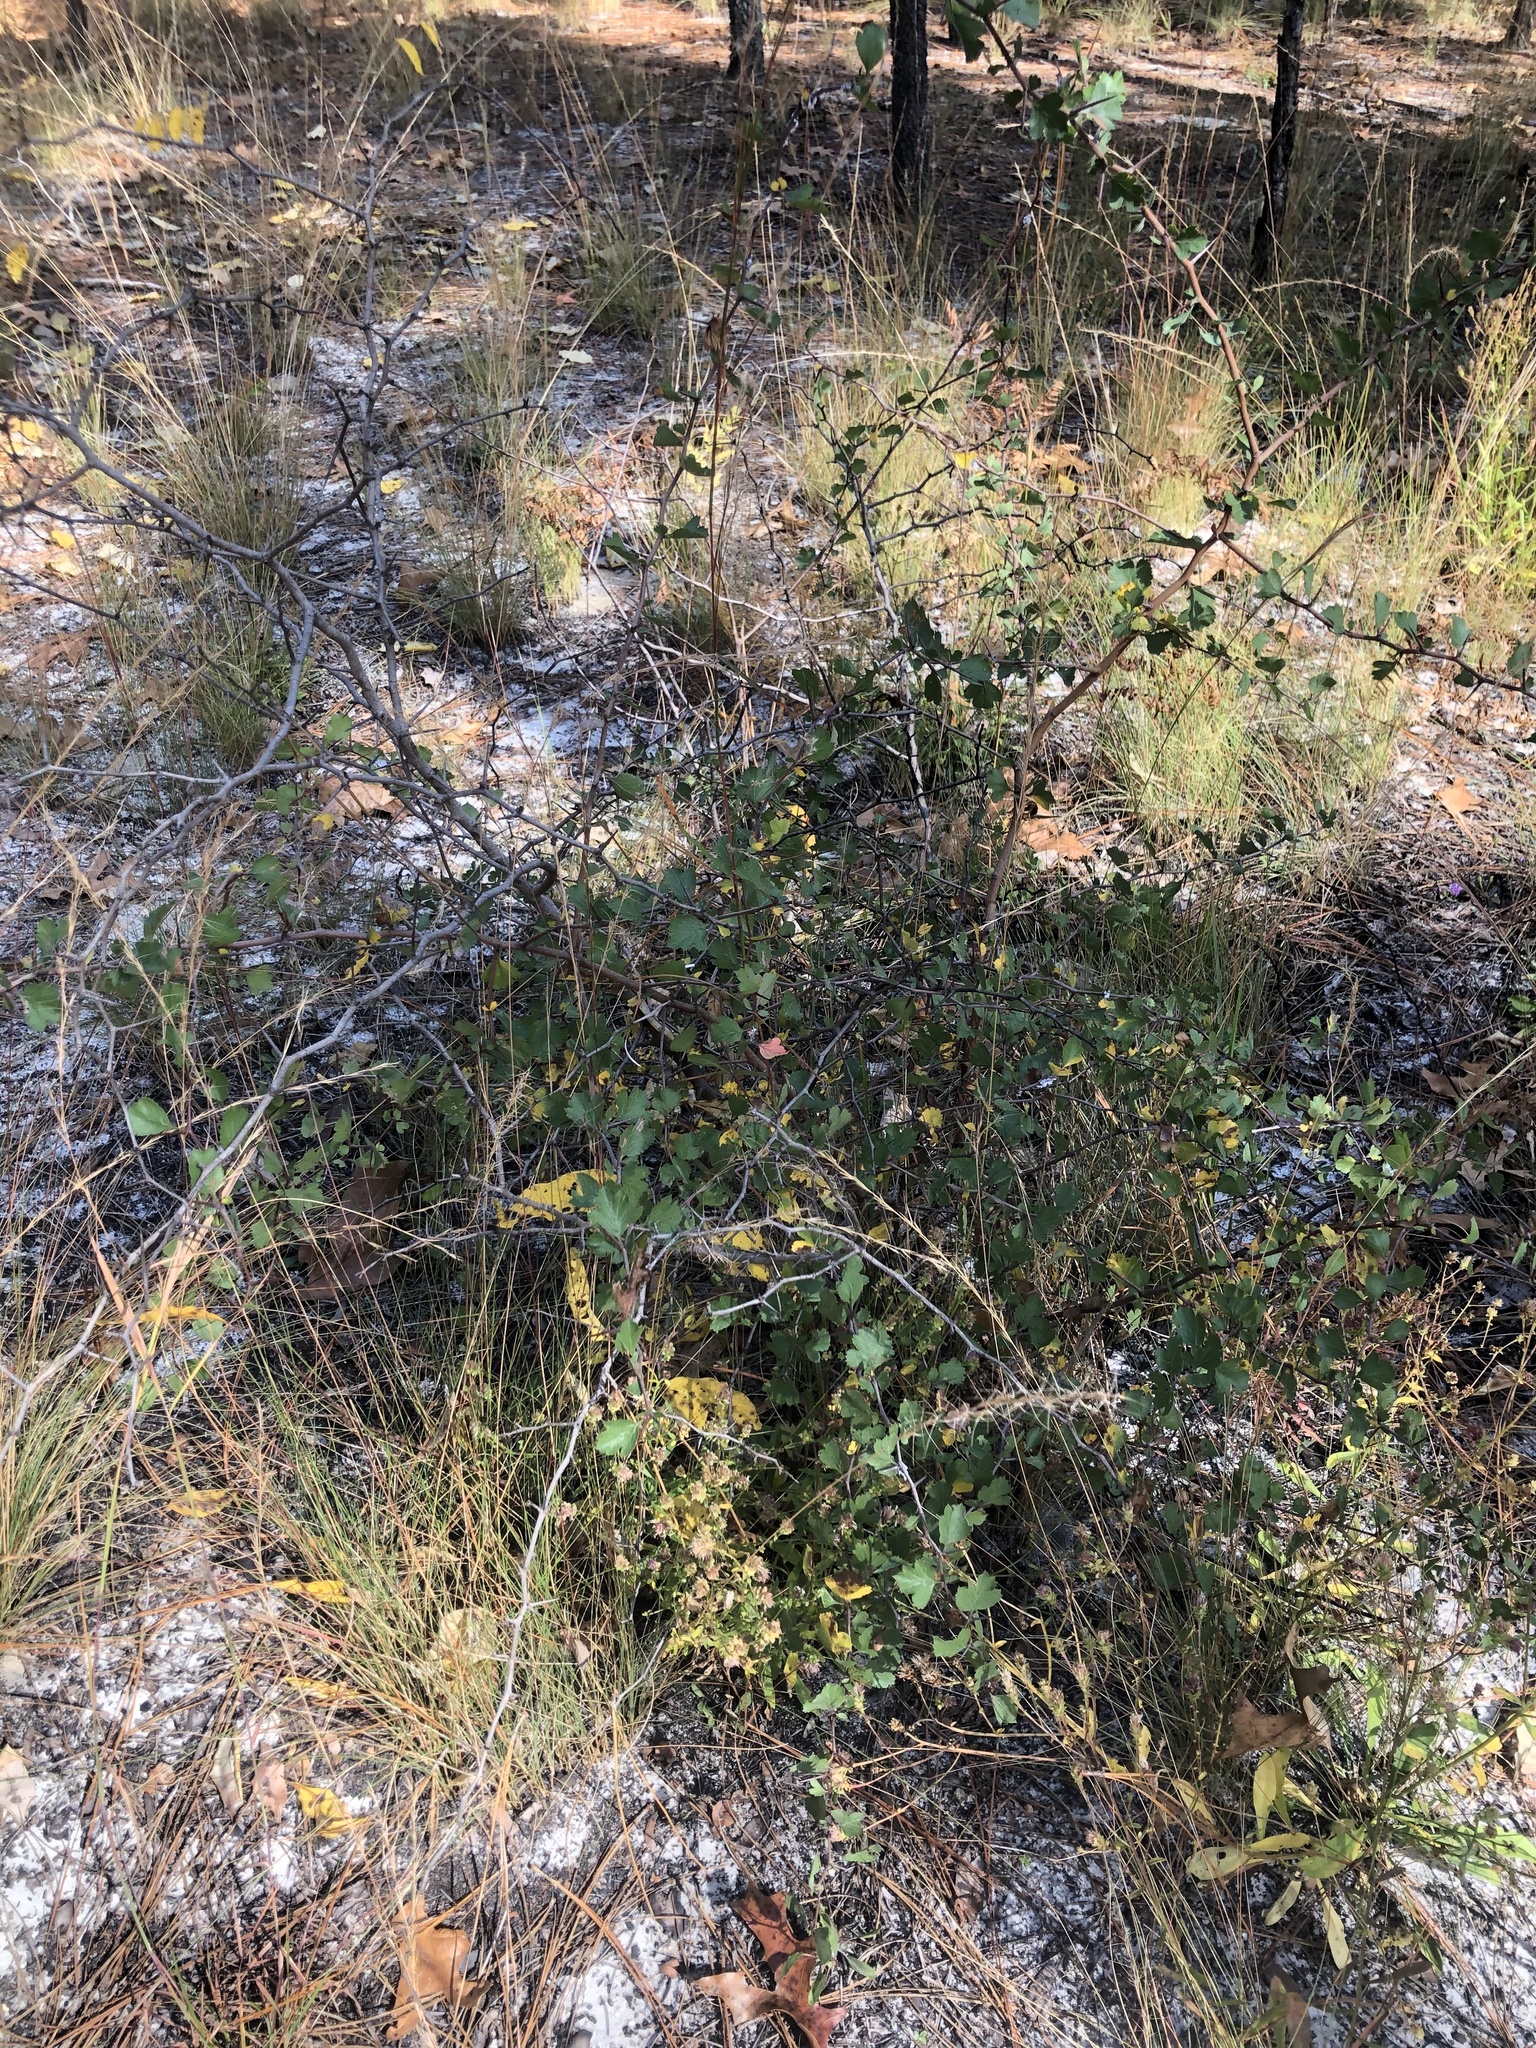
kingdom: Plantae
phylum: Tracheophyta
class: Magnoliopsida
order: Rosales
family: Rosaceae
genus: Crataegus
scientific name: Crataegus munda
